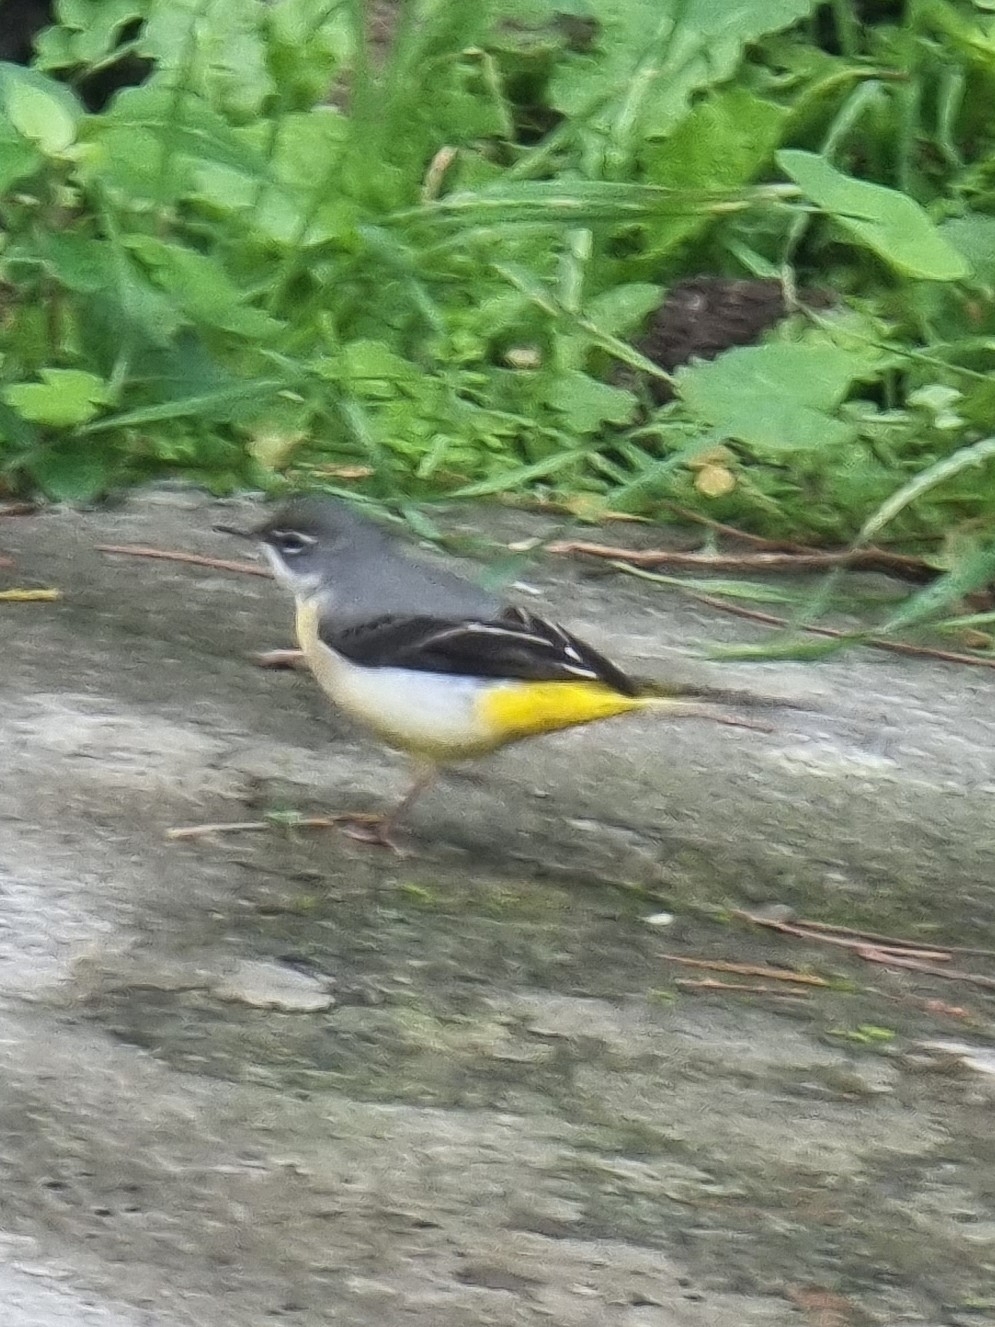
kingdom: Animalia
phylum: Chordata
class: Aves
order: Passeriformes
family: Motacillidae
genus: Motacilla
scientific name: Motacilla cinerea
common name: Grey wagtail
